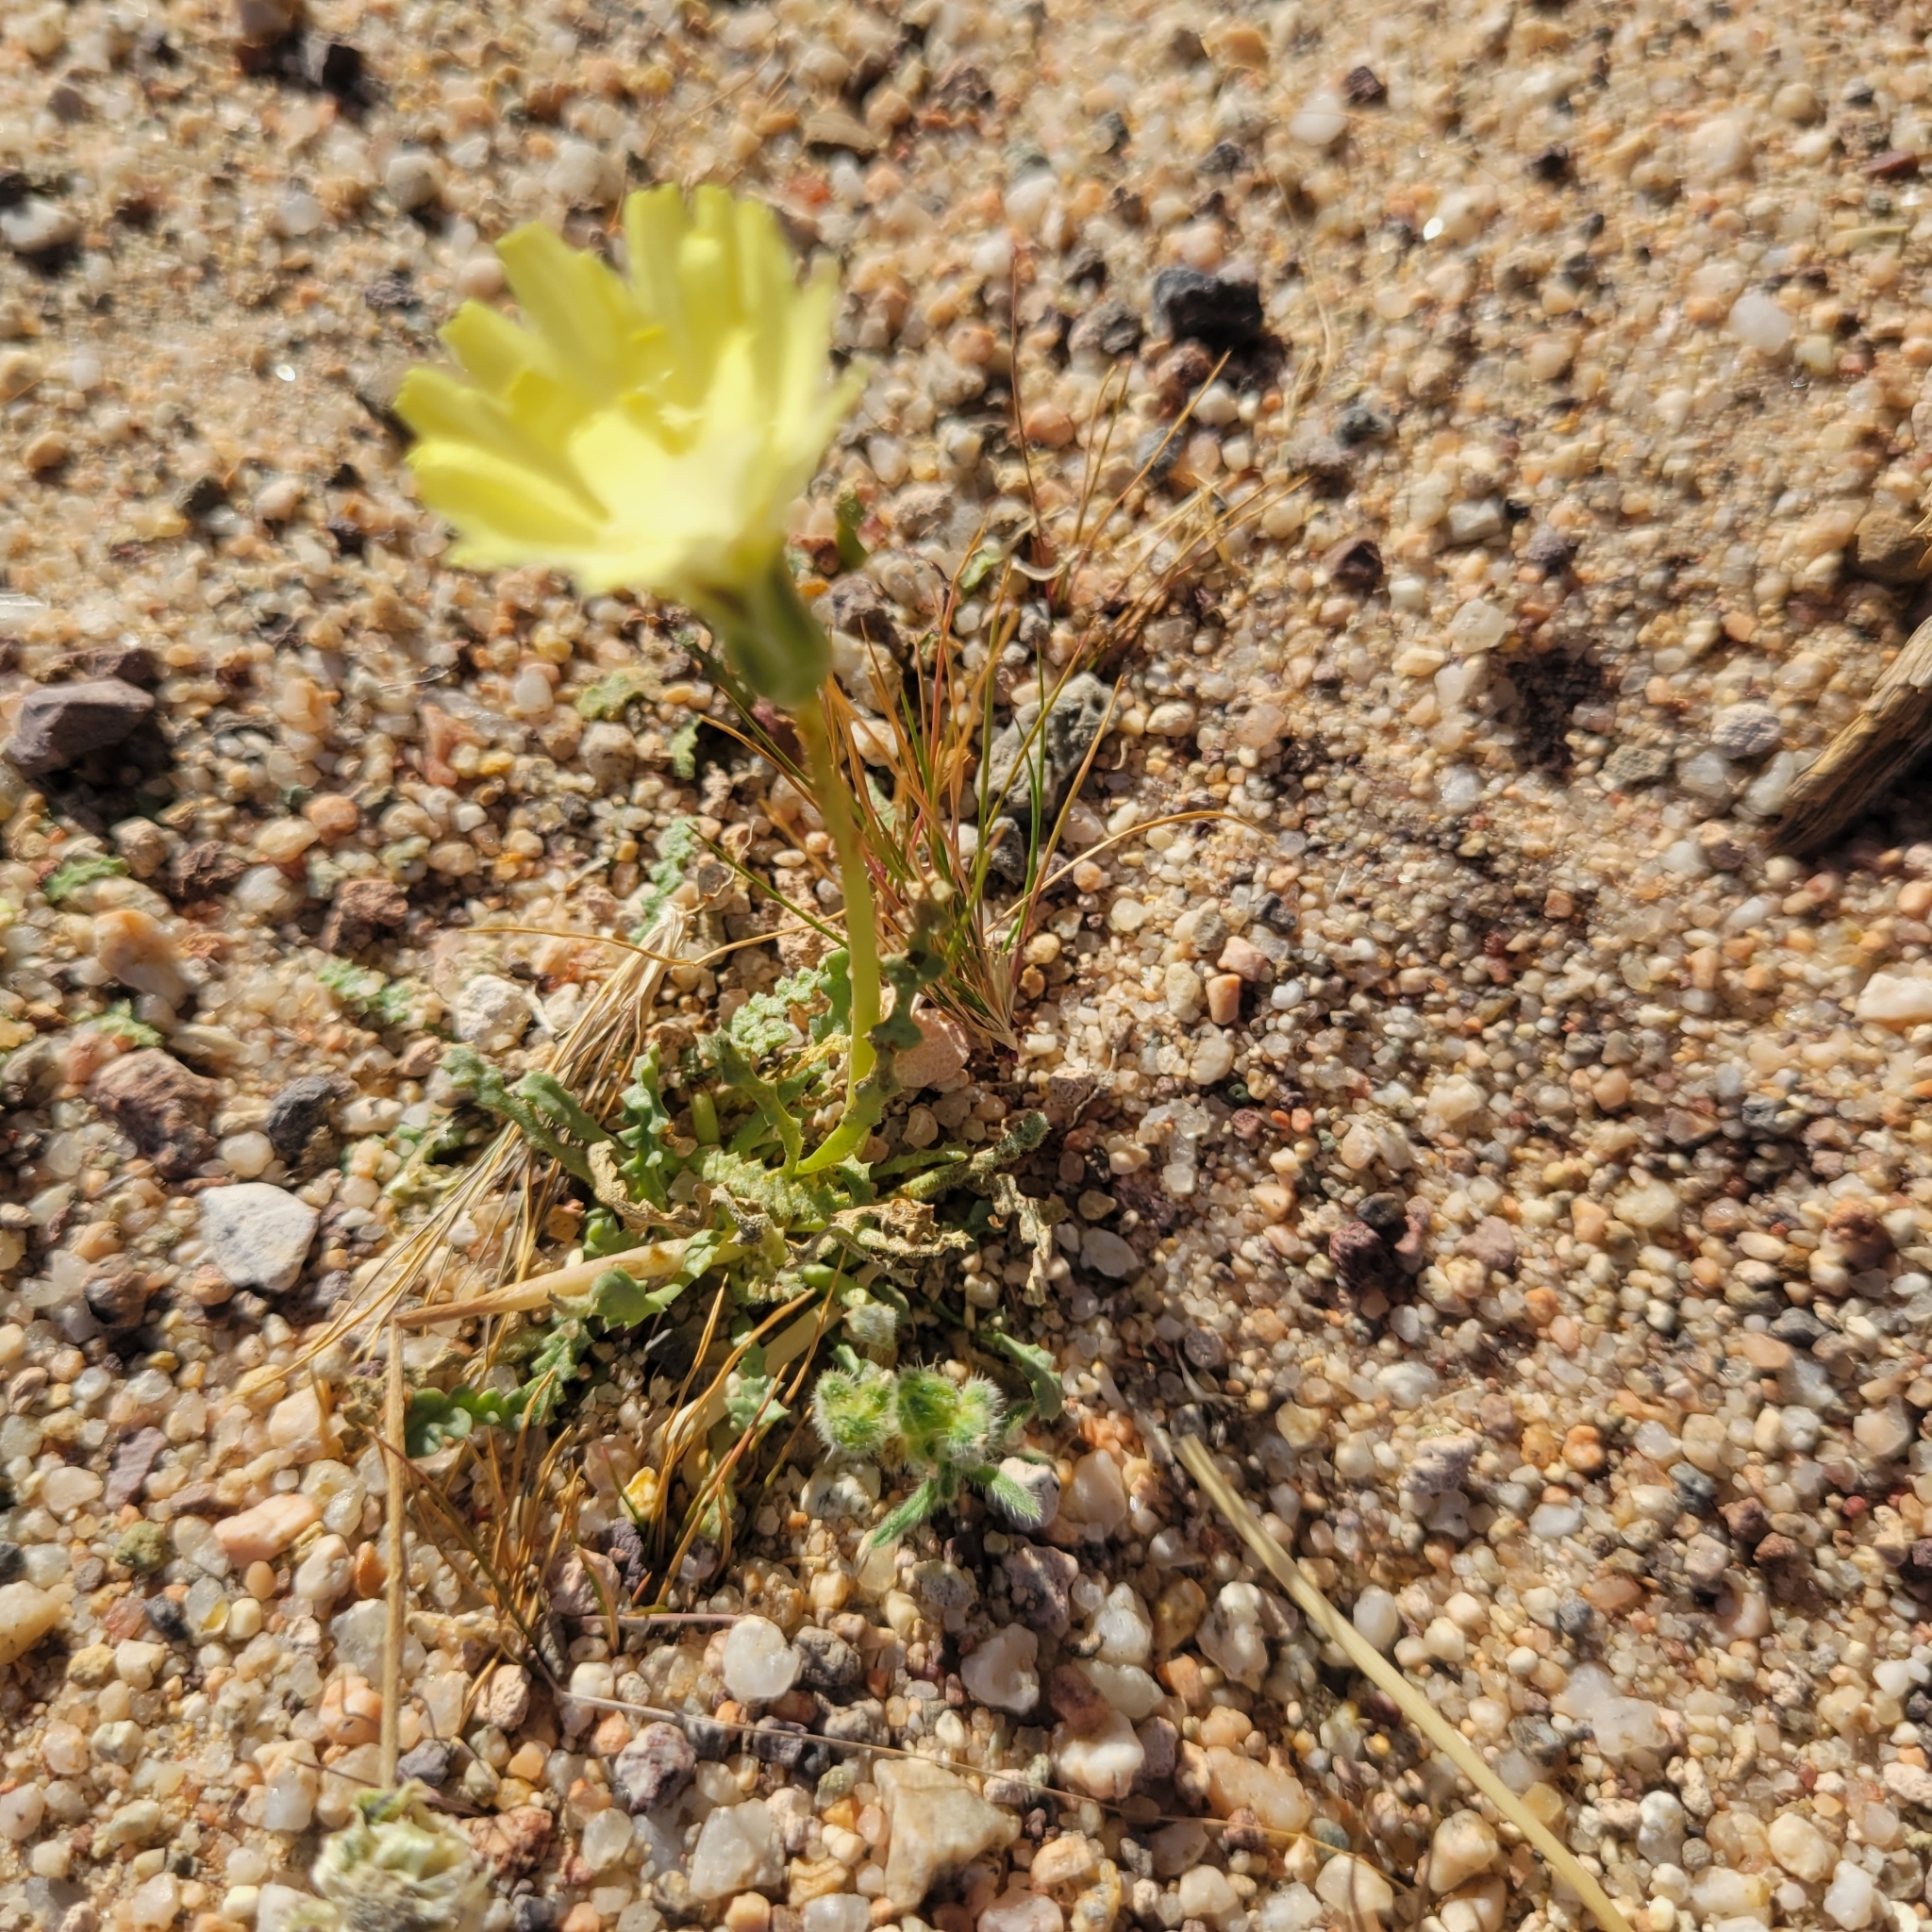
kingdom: Plantae
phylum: Tracheophyta
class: Magnoliopsida
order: Asterales
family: Asteraceae
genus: Anisocoma
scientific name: Anisocoma acaulis
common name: Scalebud
